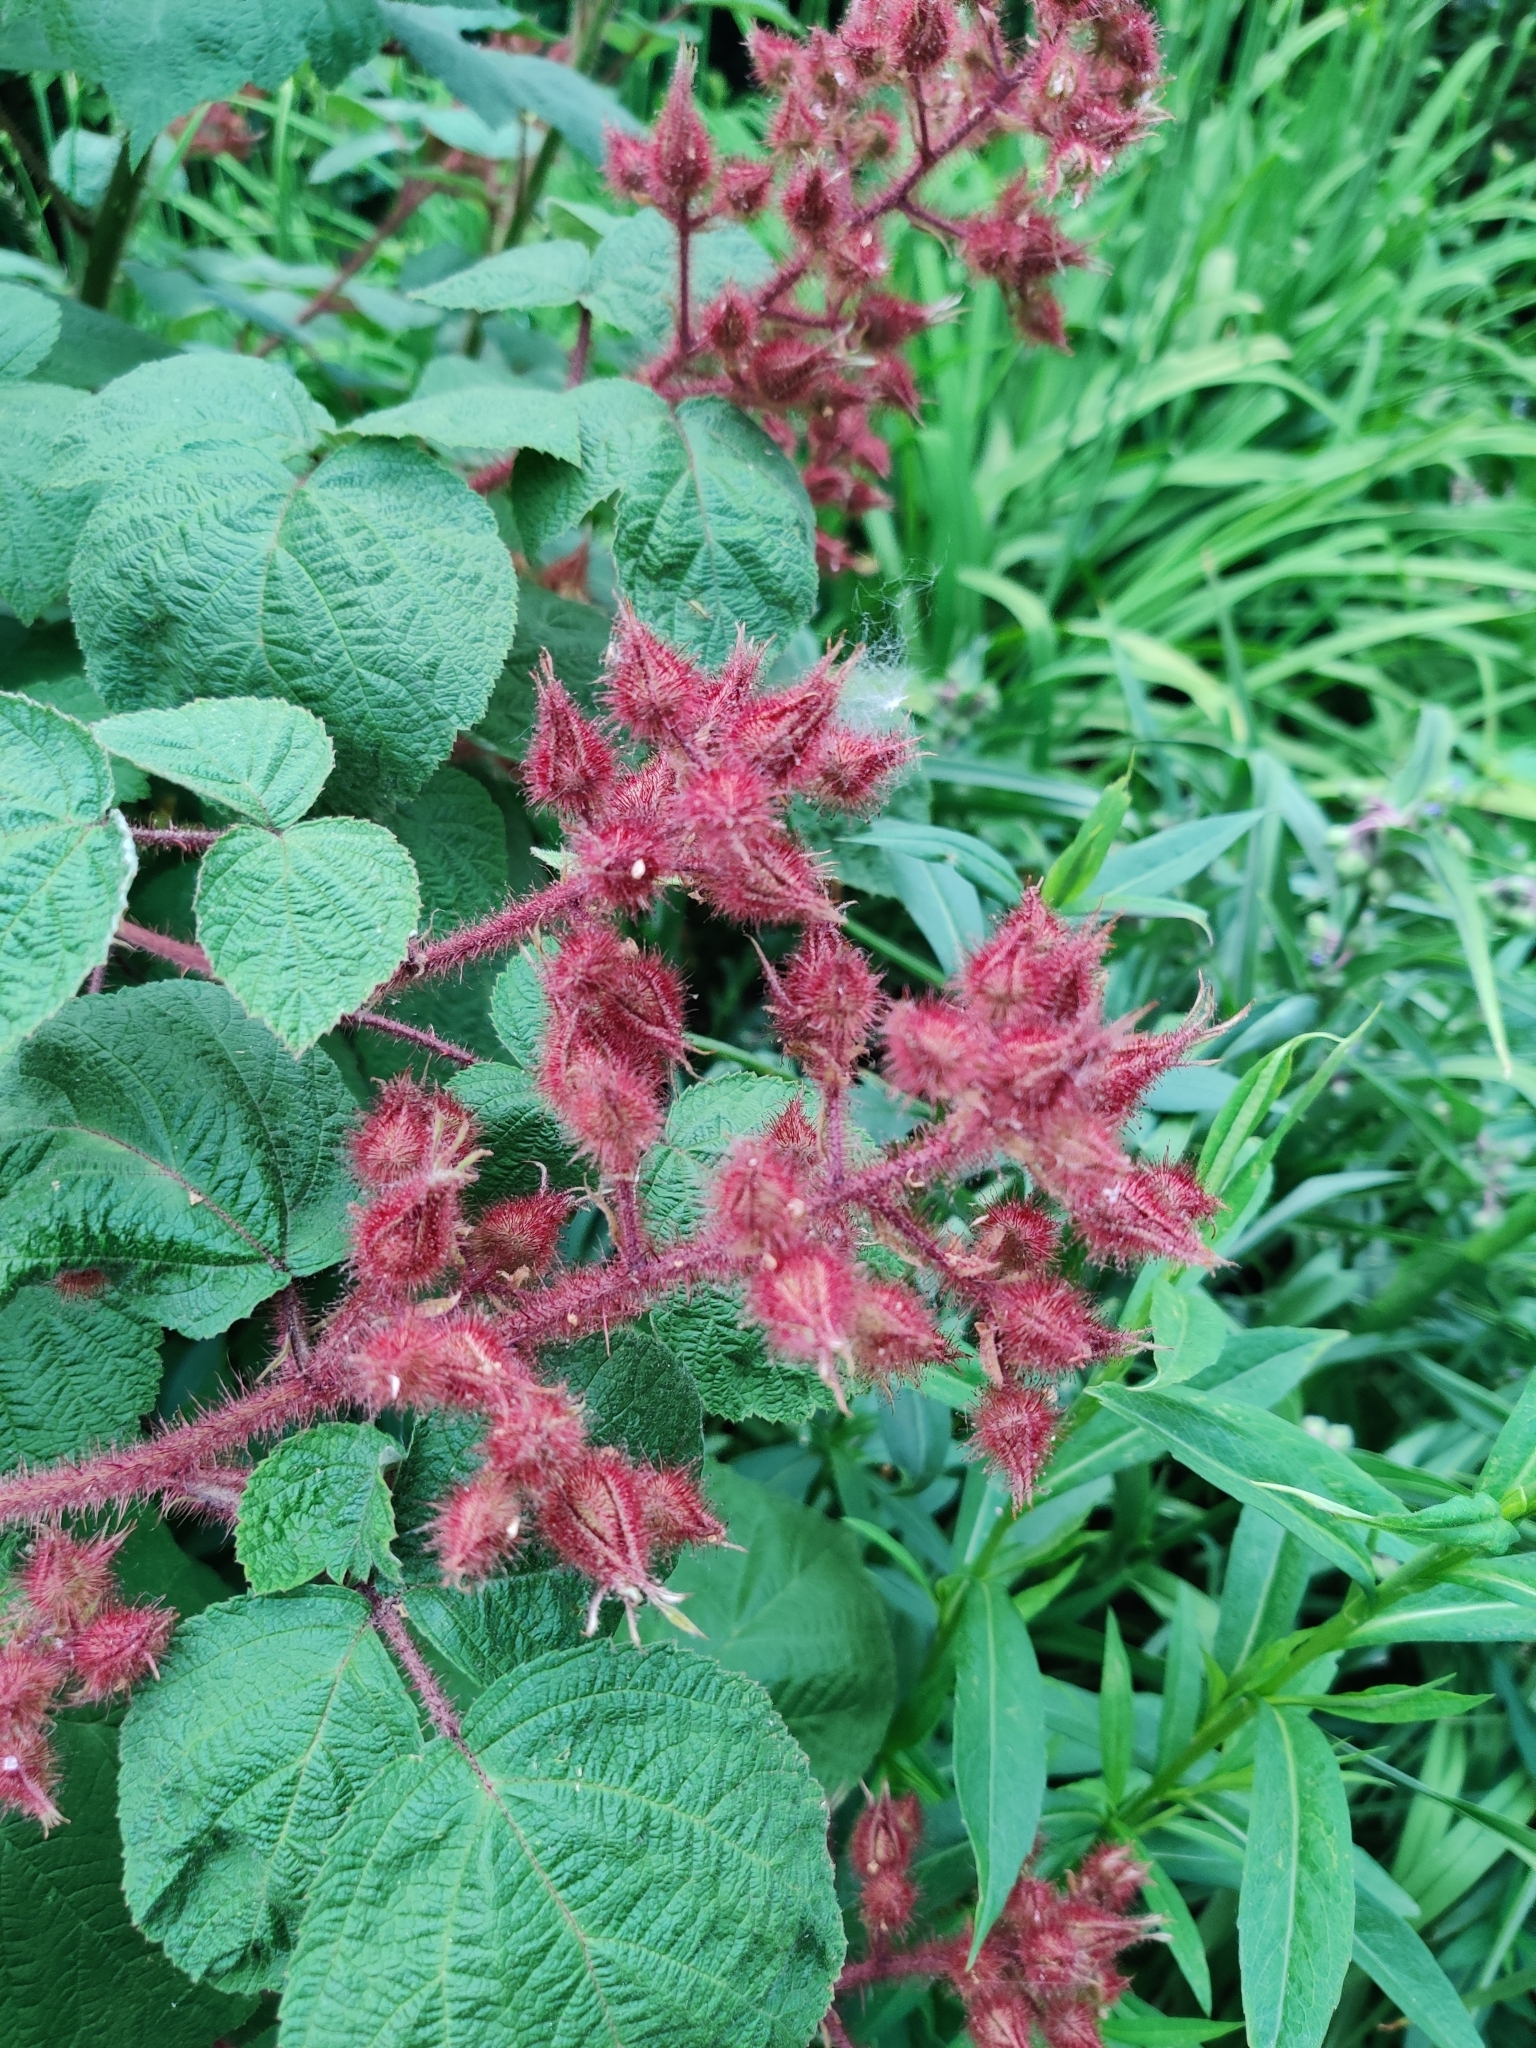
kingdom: Plantae
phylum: Tracheophyta
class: Magnoliopsida
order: Rosales
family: Rosaceae
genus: Rubus
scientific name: Rubus phoenicolasius
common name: Japanese wineberry
